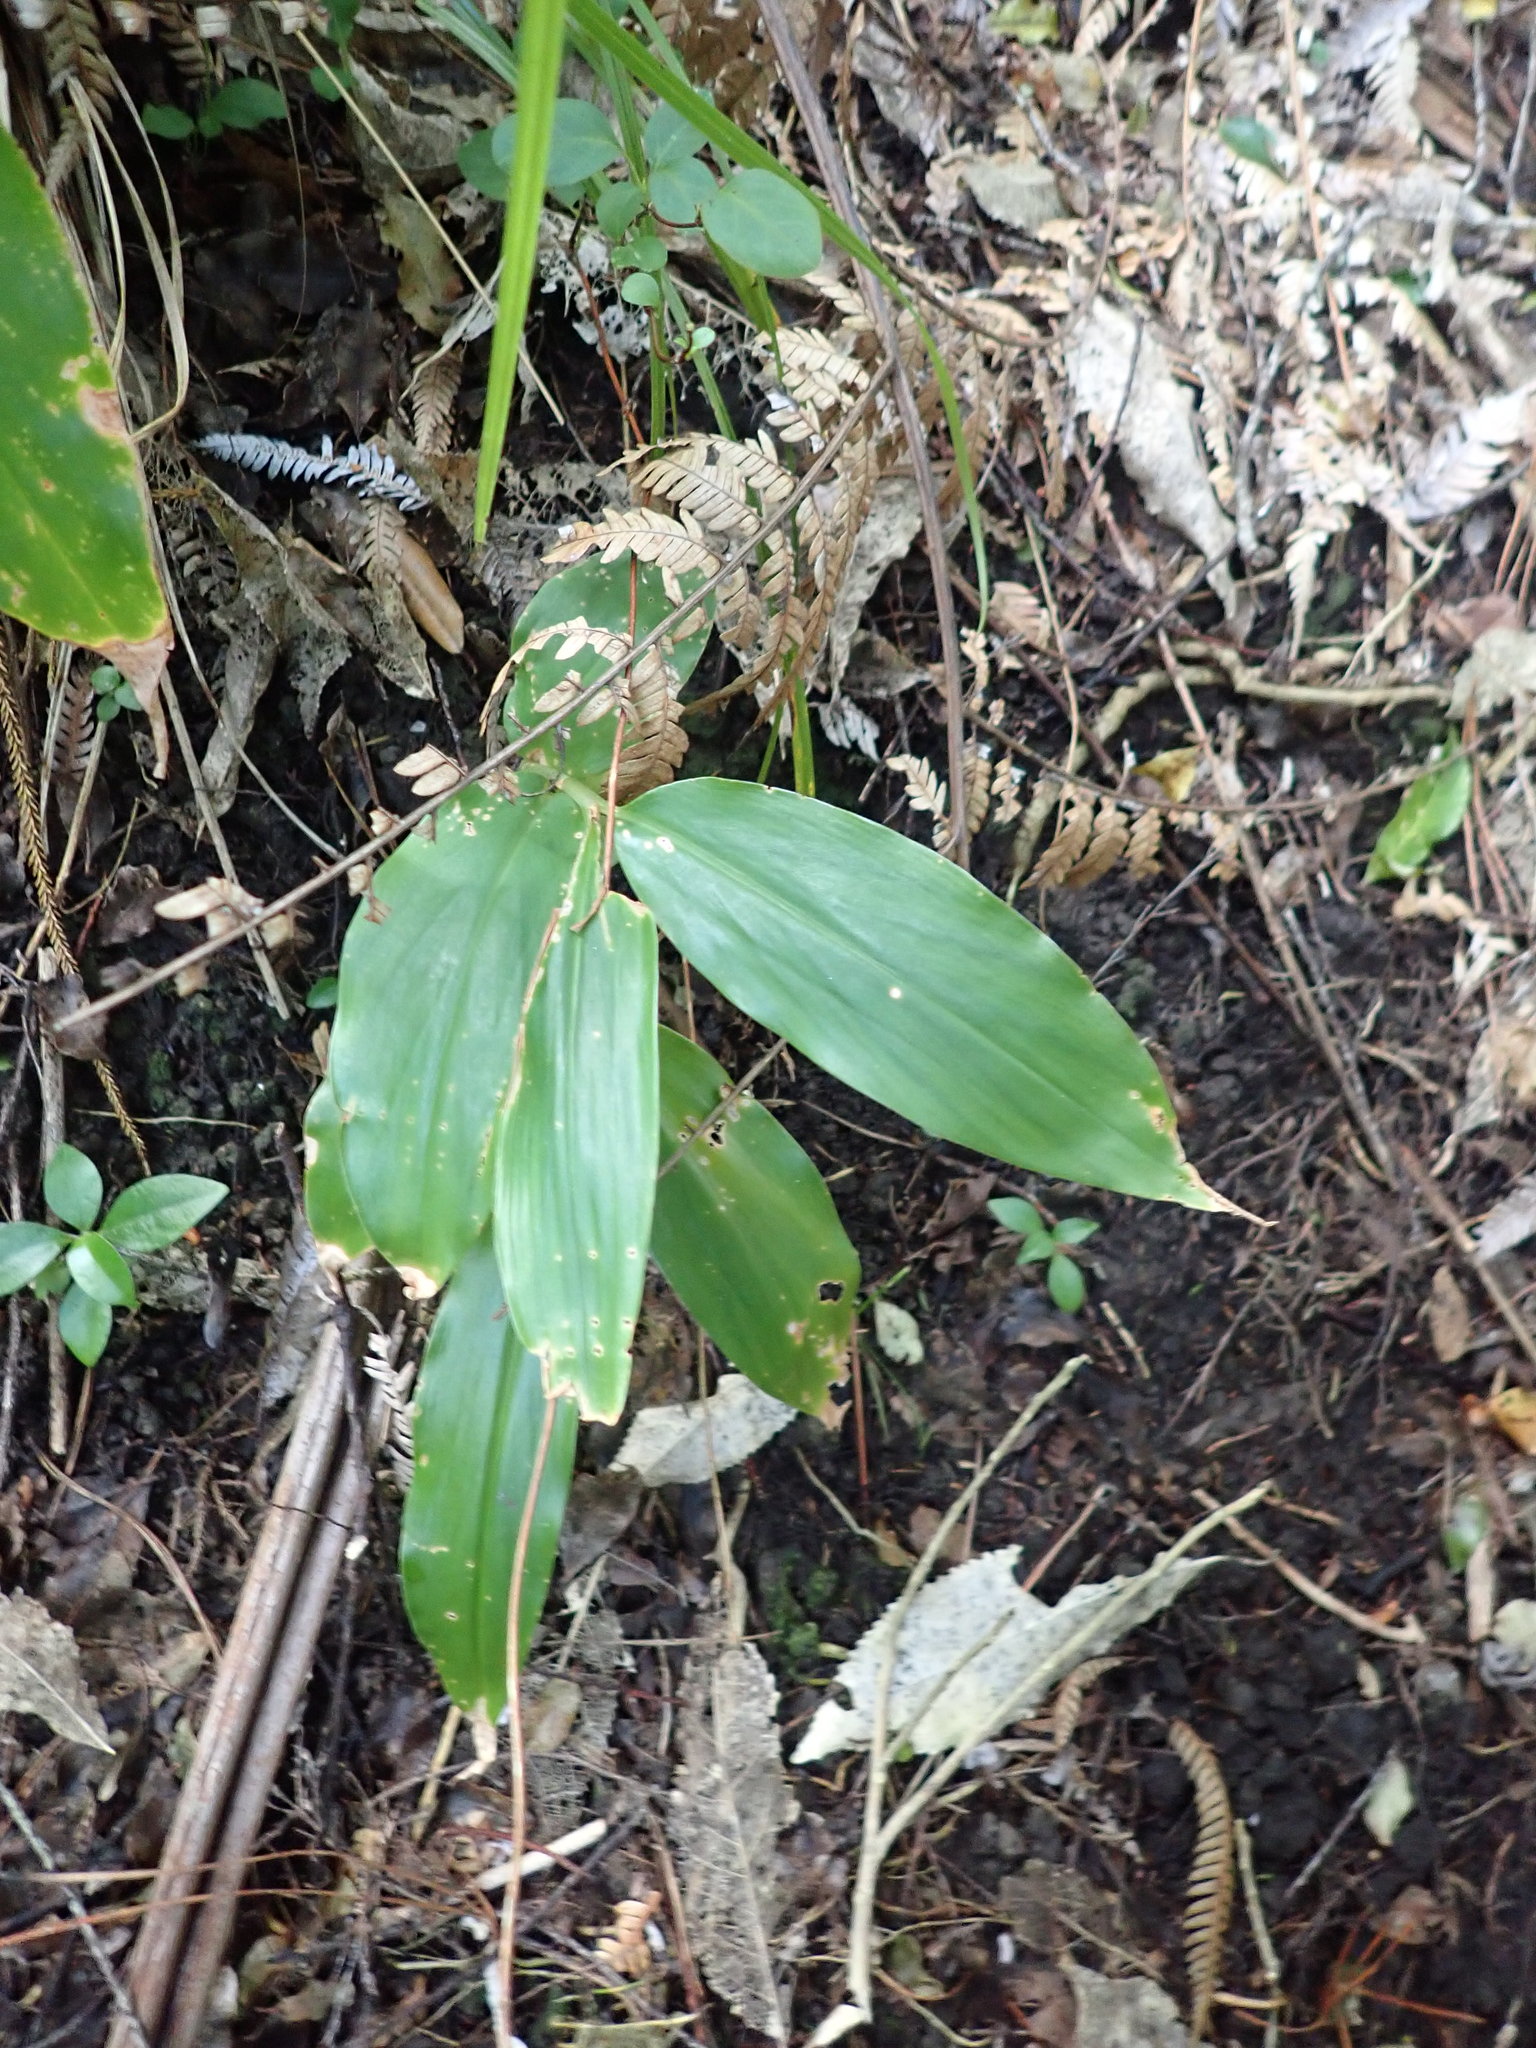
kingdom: Plantae
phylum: Tracheophyta
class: Liliopsida
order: Zingiberales
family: Zingiberaceae
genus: Hedychium
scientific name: Hedychium gardnerianum
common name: Himalayan ginger
